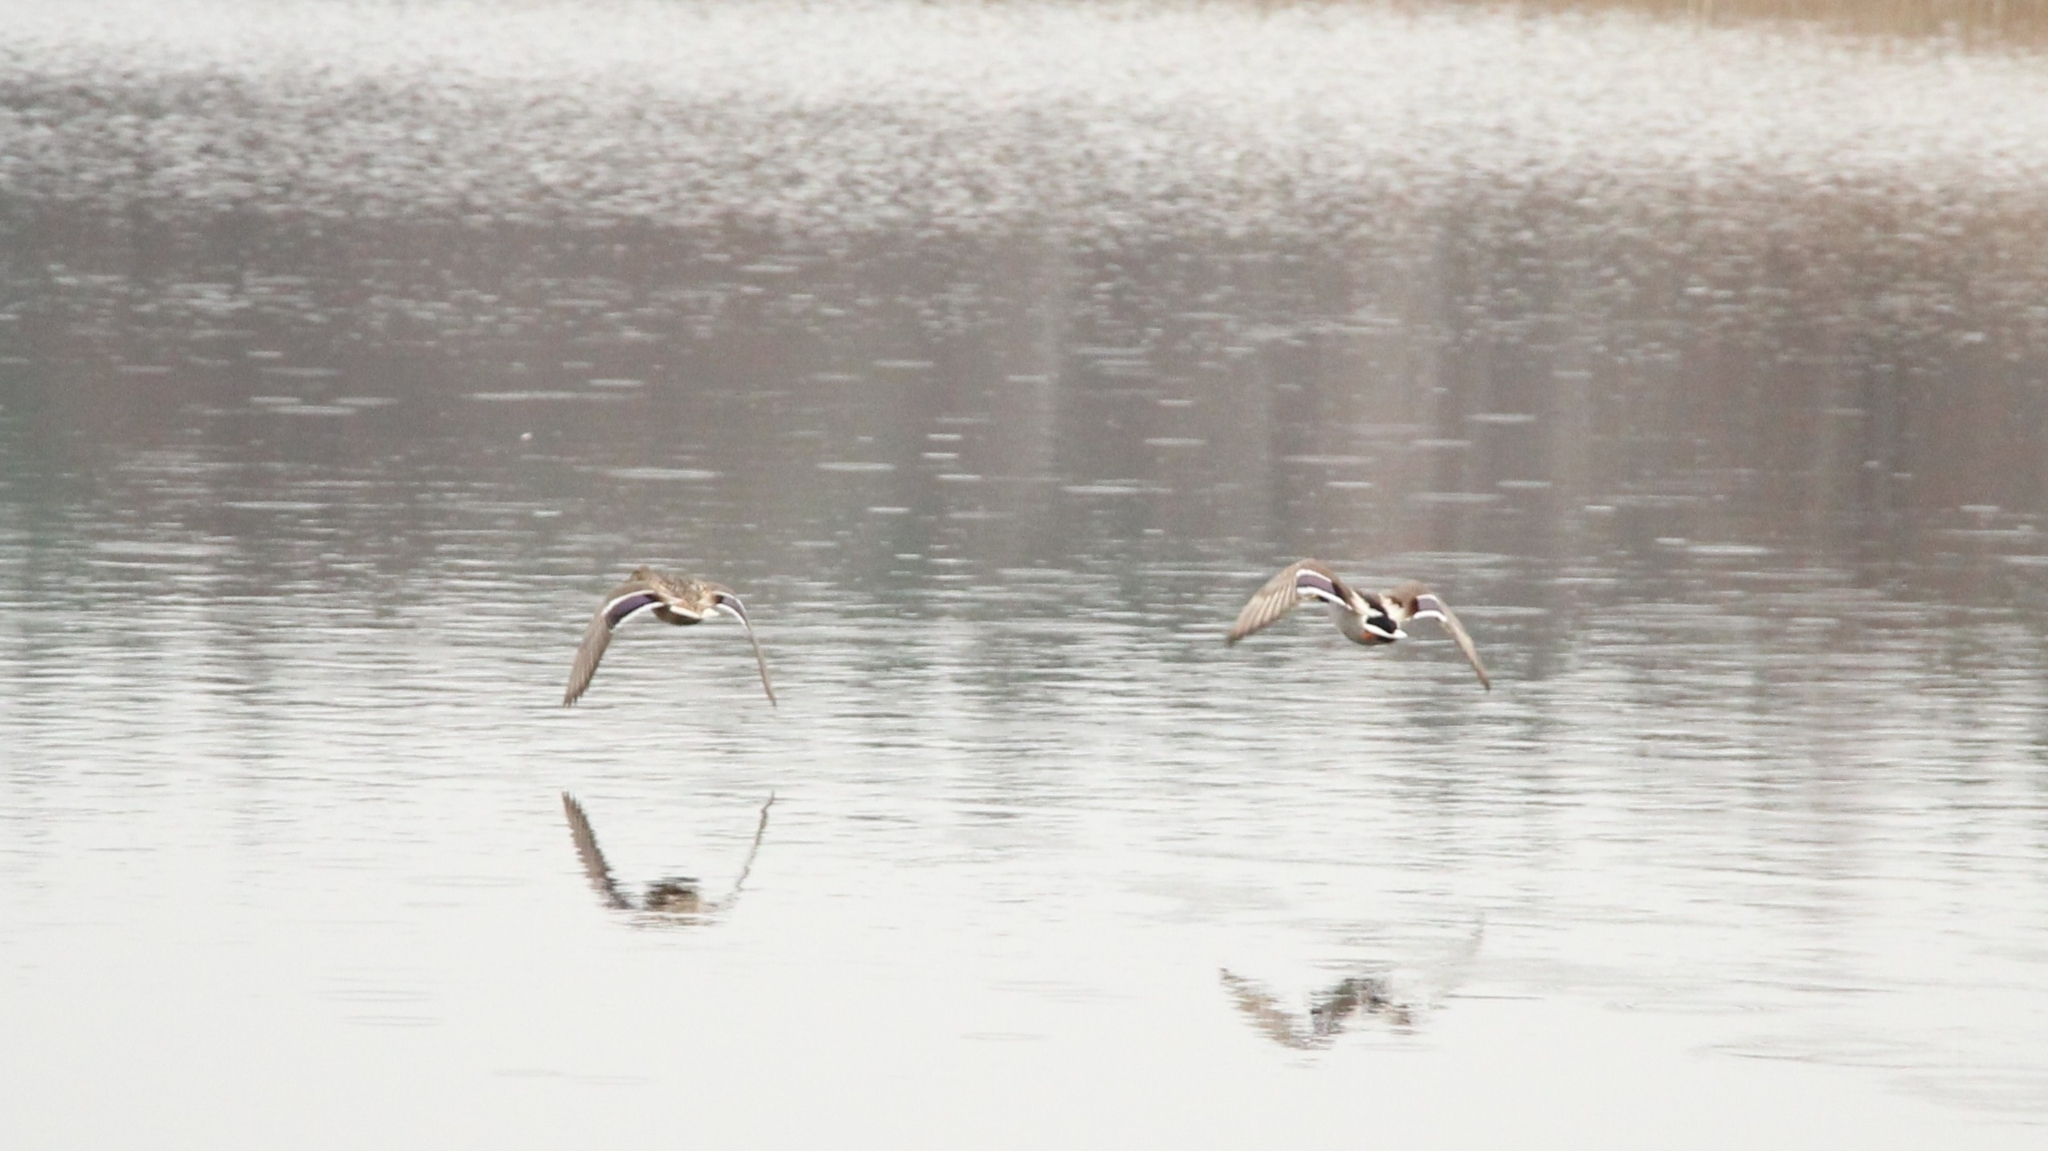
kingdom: Animalia
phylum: Chordata
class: Aves
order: Anseriformes
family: Anatidae
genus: Anas
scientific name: Anas platyrhynchos
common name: Mallard
